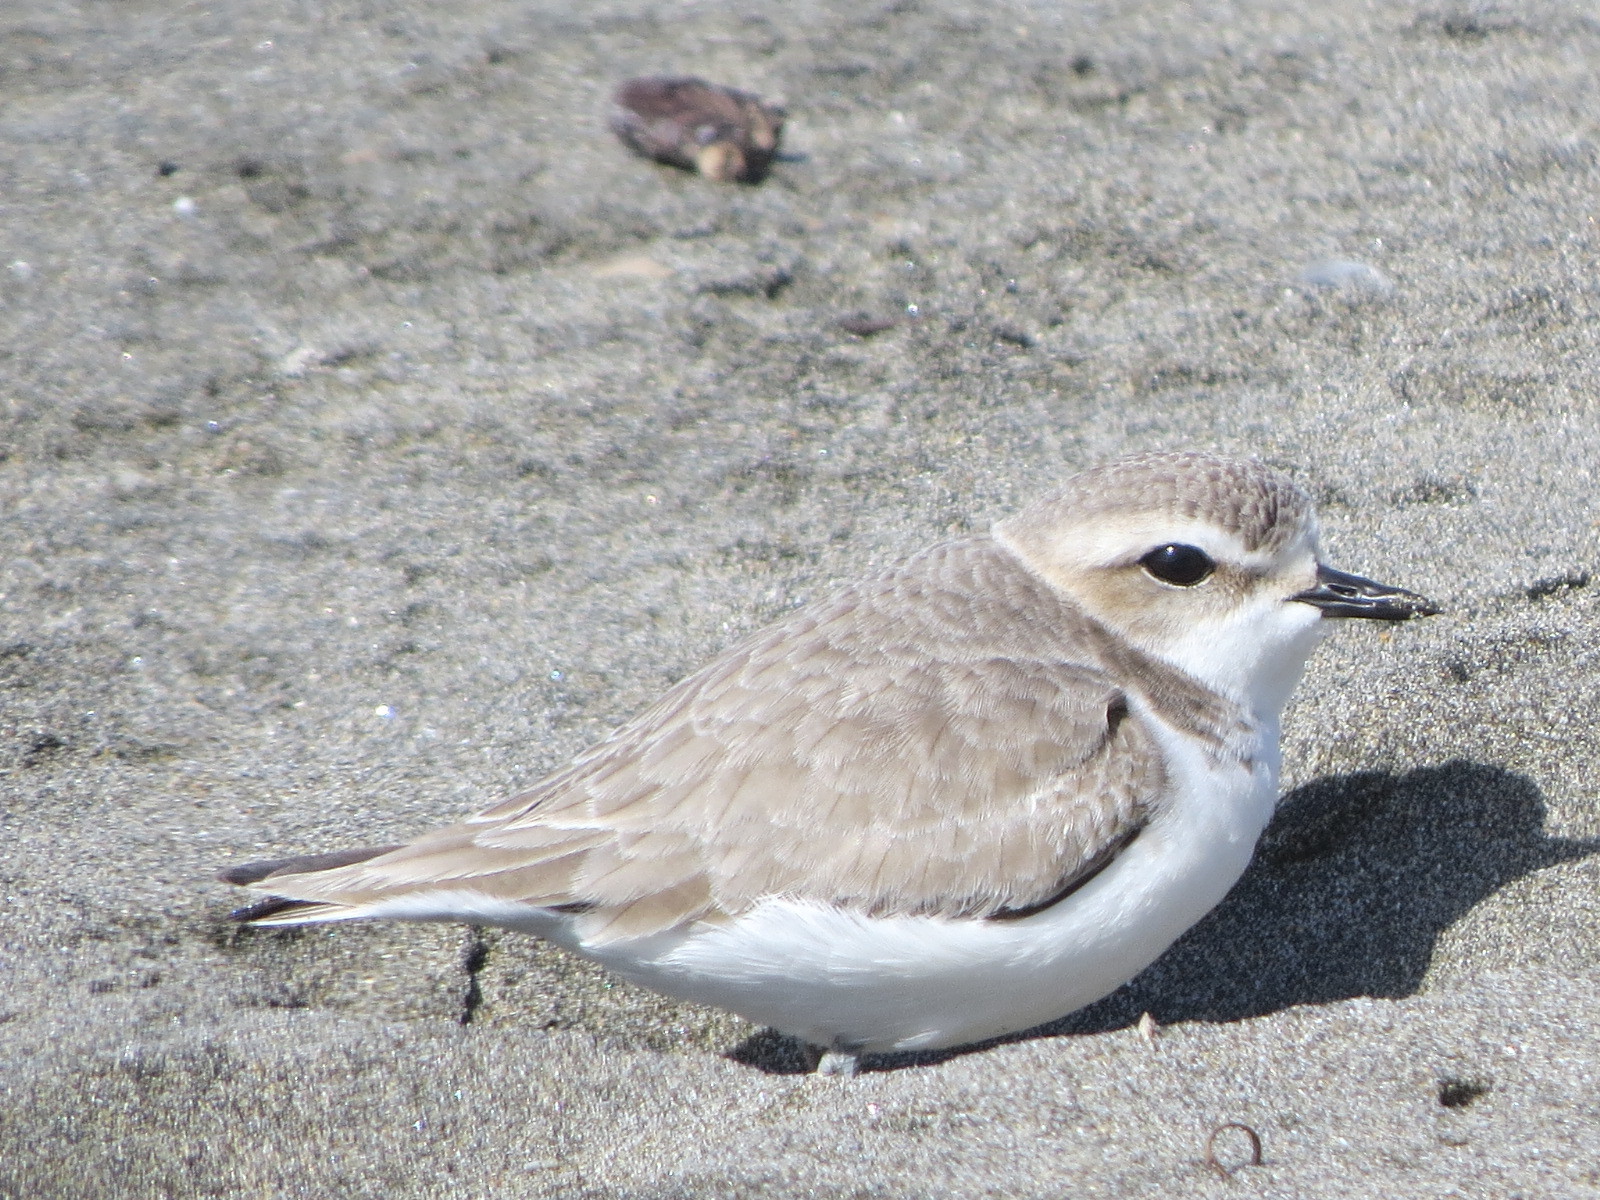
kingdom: Animalia
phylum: Chordata
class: Aves
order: Charadriiformes
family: Charadriidae
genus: Anarhynchus
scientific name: Anarhynchus
